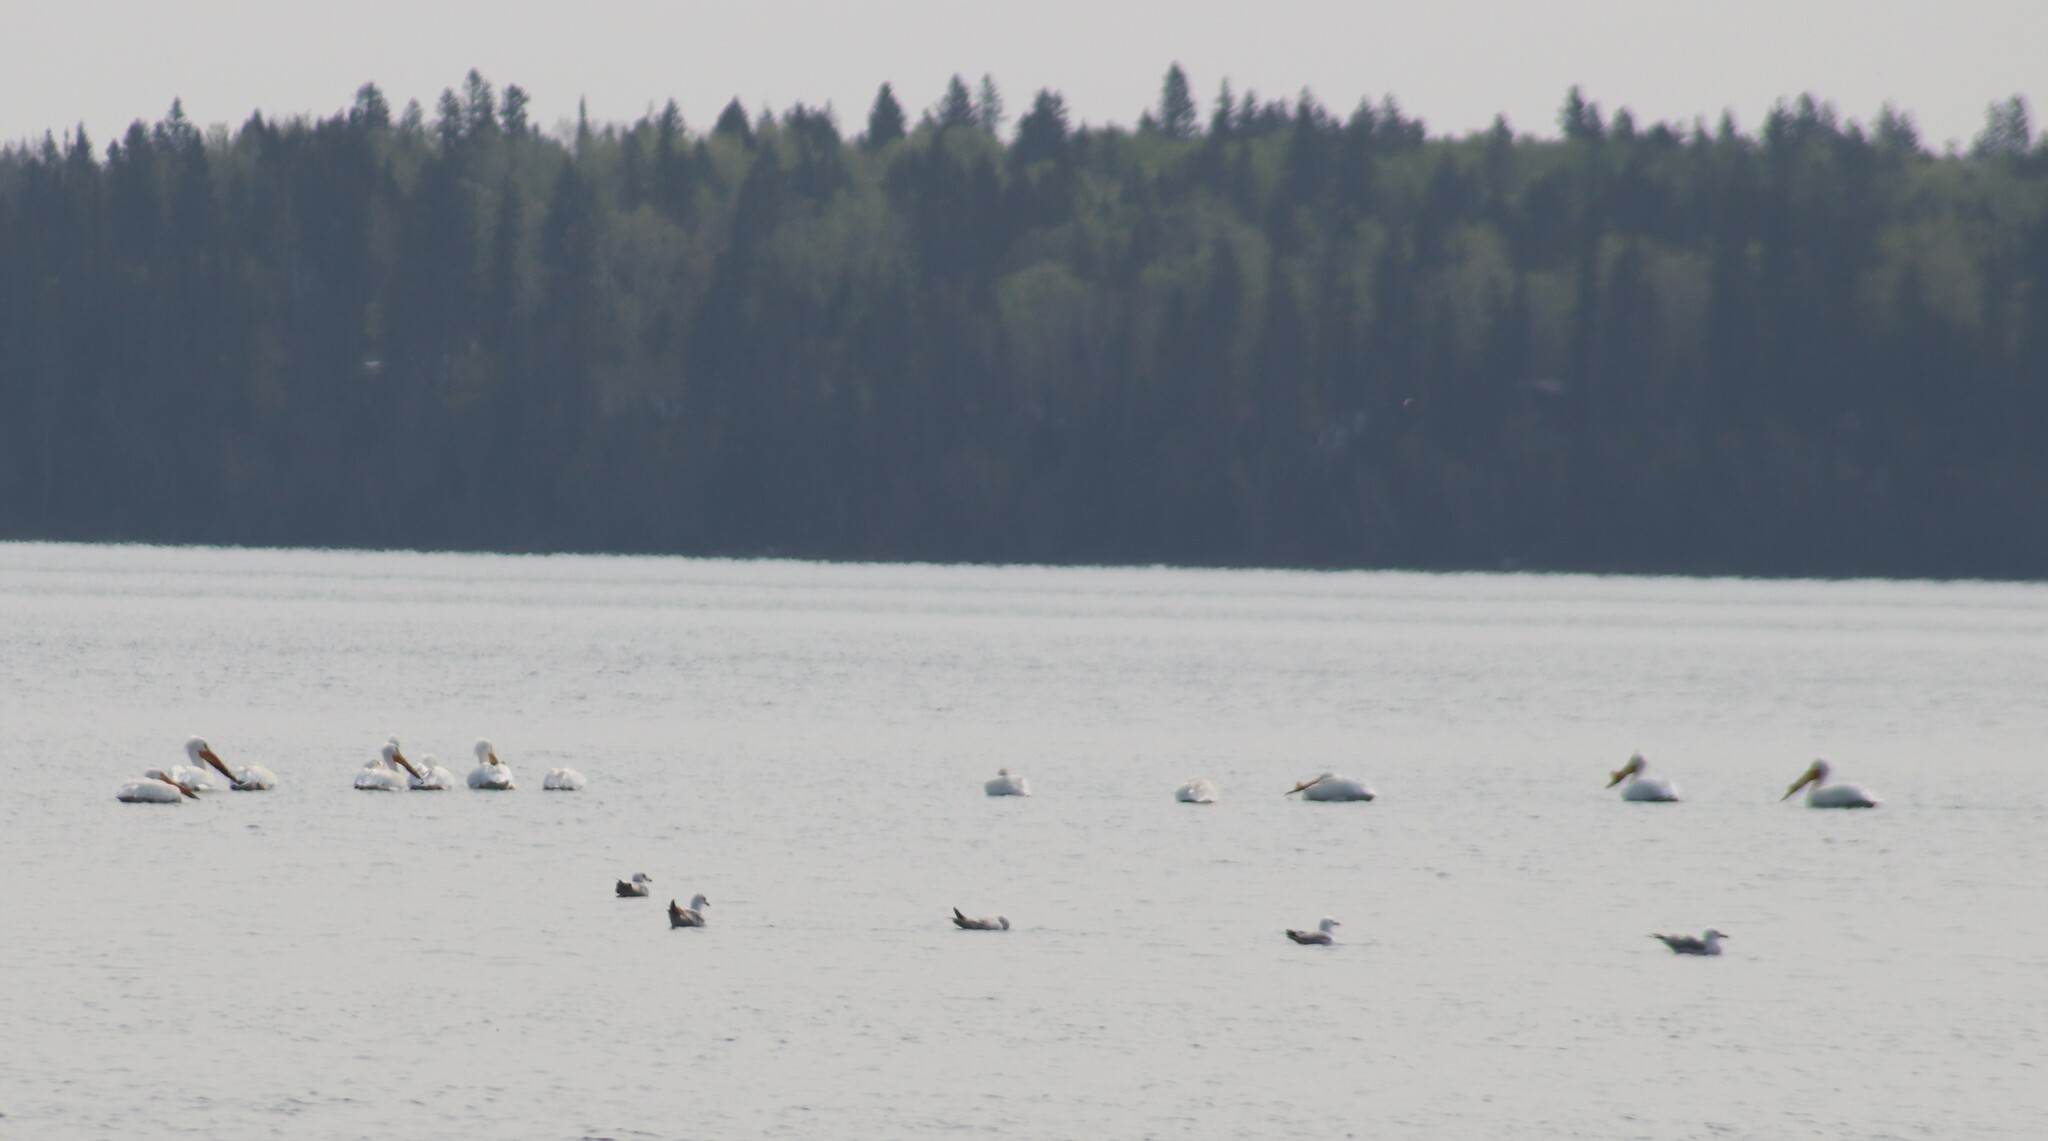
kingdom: Animalia
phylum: Chordata
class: Aves
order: Pelecaniformes
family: Pelecanidae
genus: Pelecanus
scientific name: Pelecanus erythrorhynchos
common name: American white pelican
